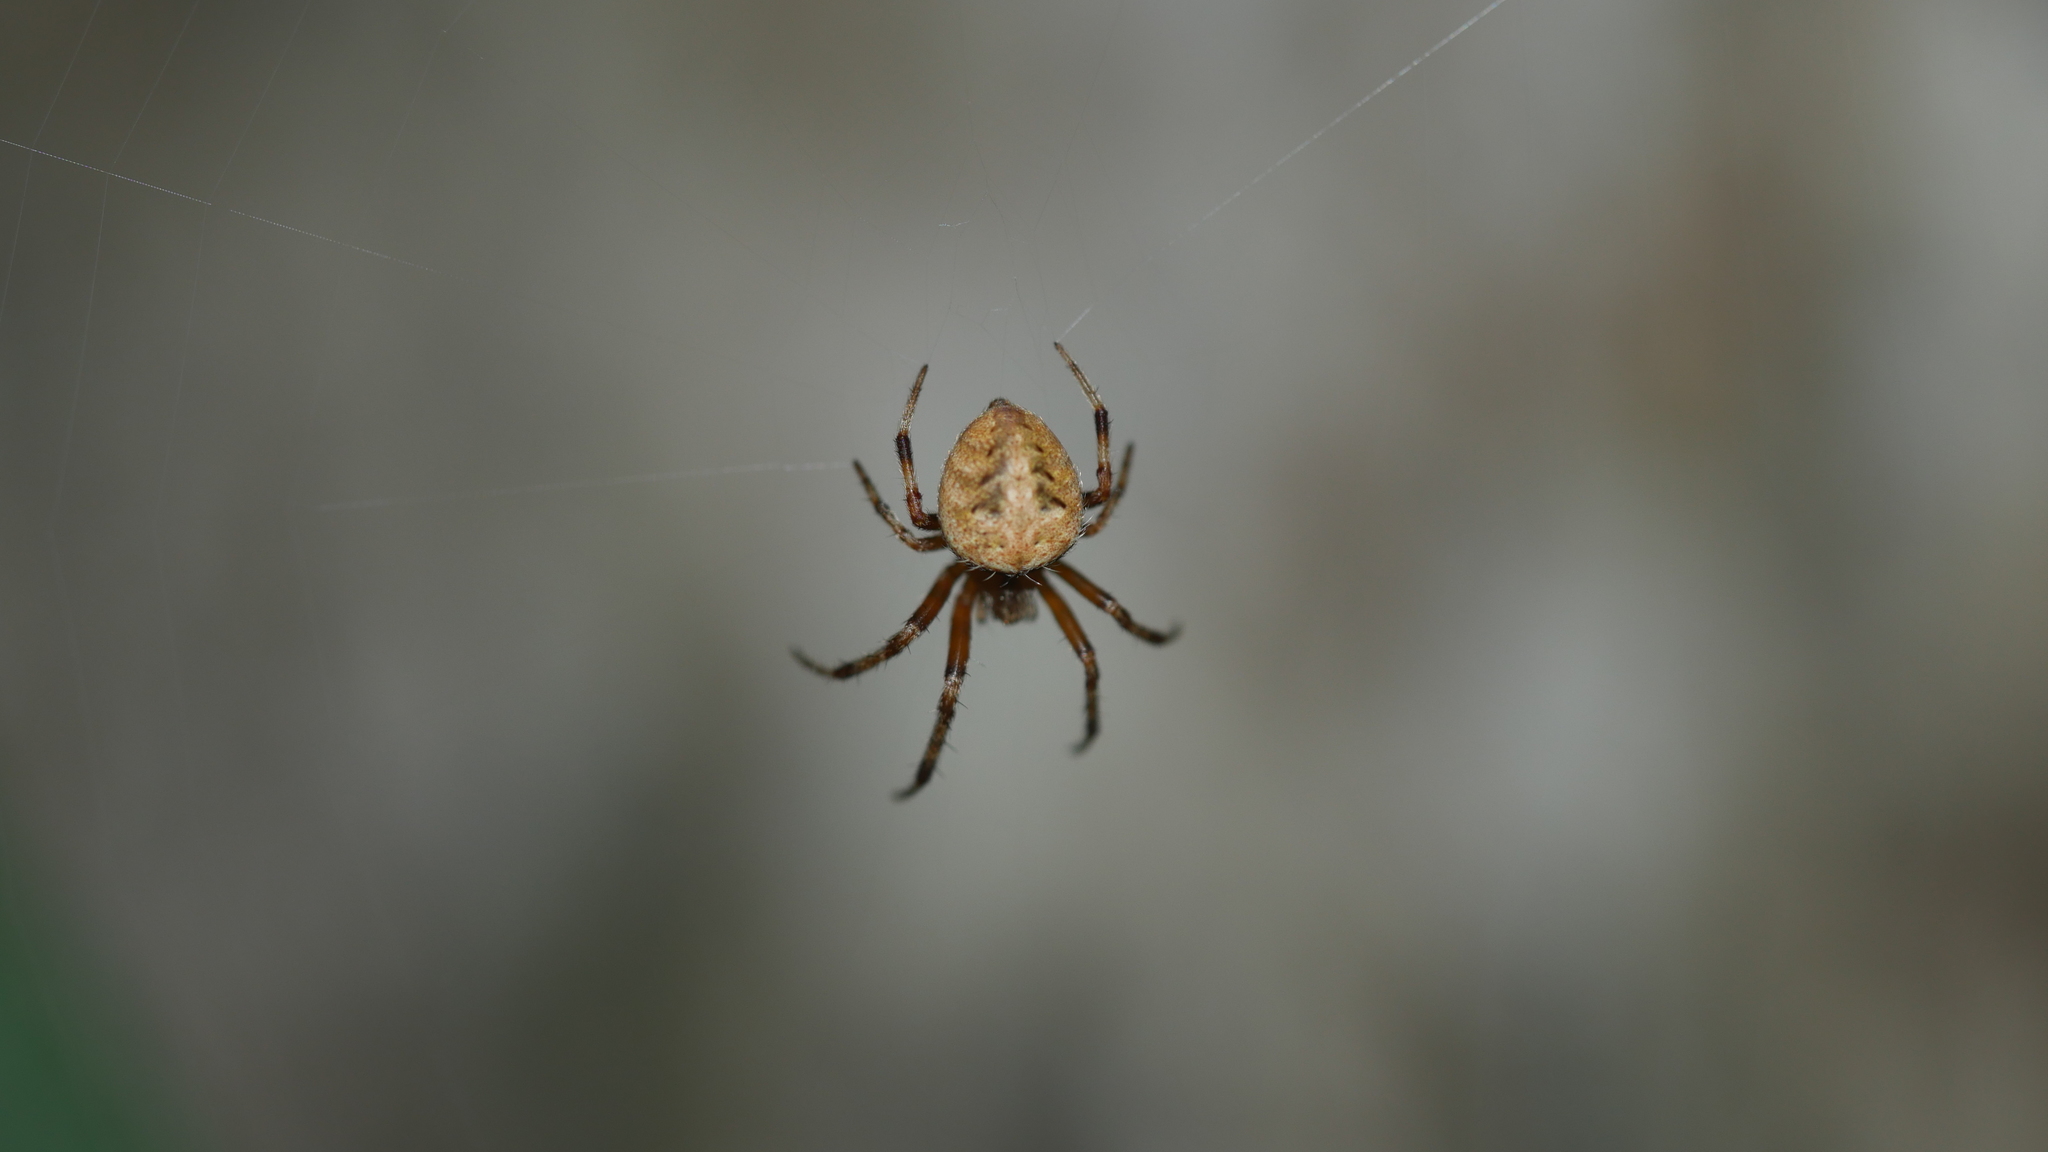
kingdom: Animalia
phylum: Arthropoda
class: Arachnida
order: Araneae
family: Araneidae
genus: Neoscona
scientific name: Neoscona arabesca
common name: Orb weavers
